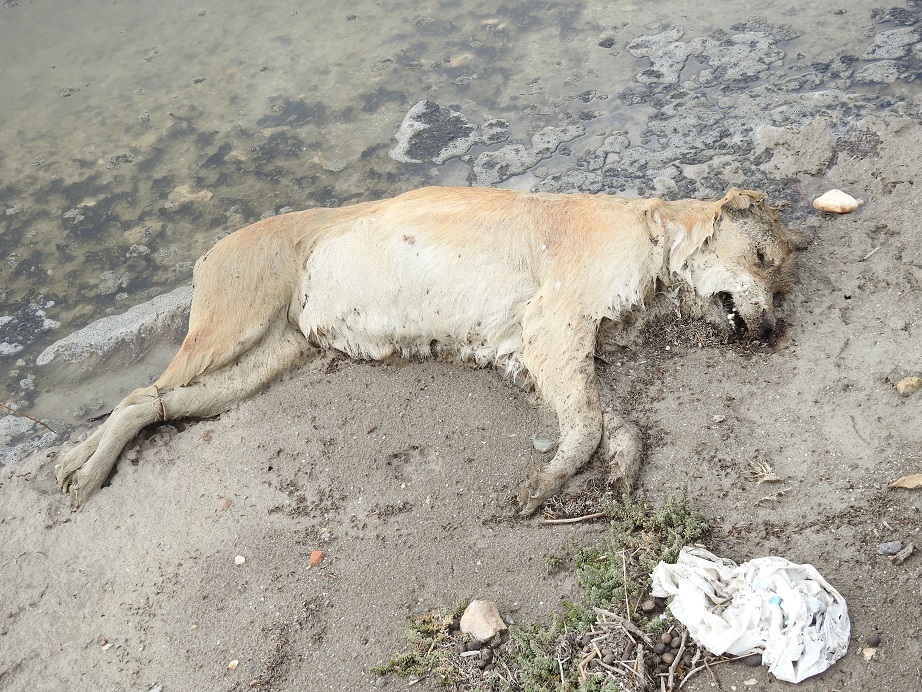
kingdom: Animalia
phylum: Chordata
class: Mammalia
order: Carnivora
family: Canidae
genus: Canis
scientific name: Canis lupus
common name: Gray wolf
